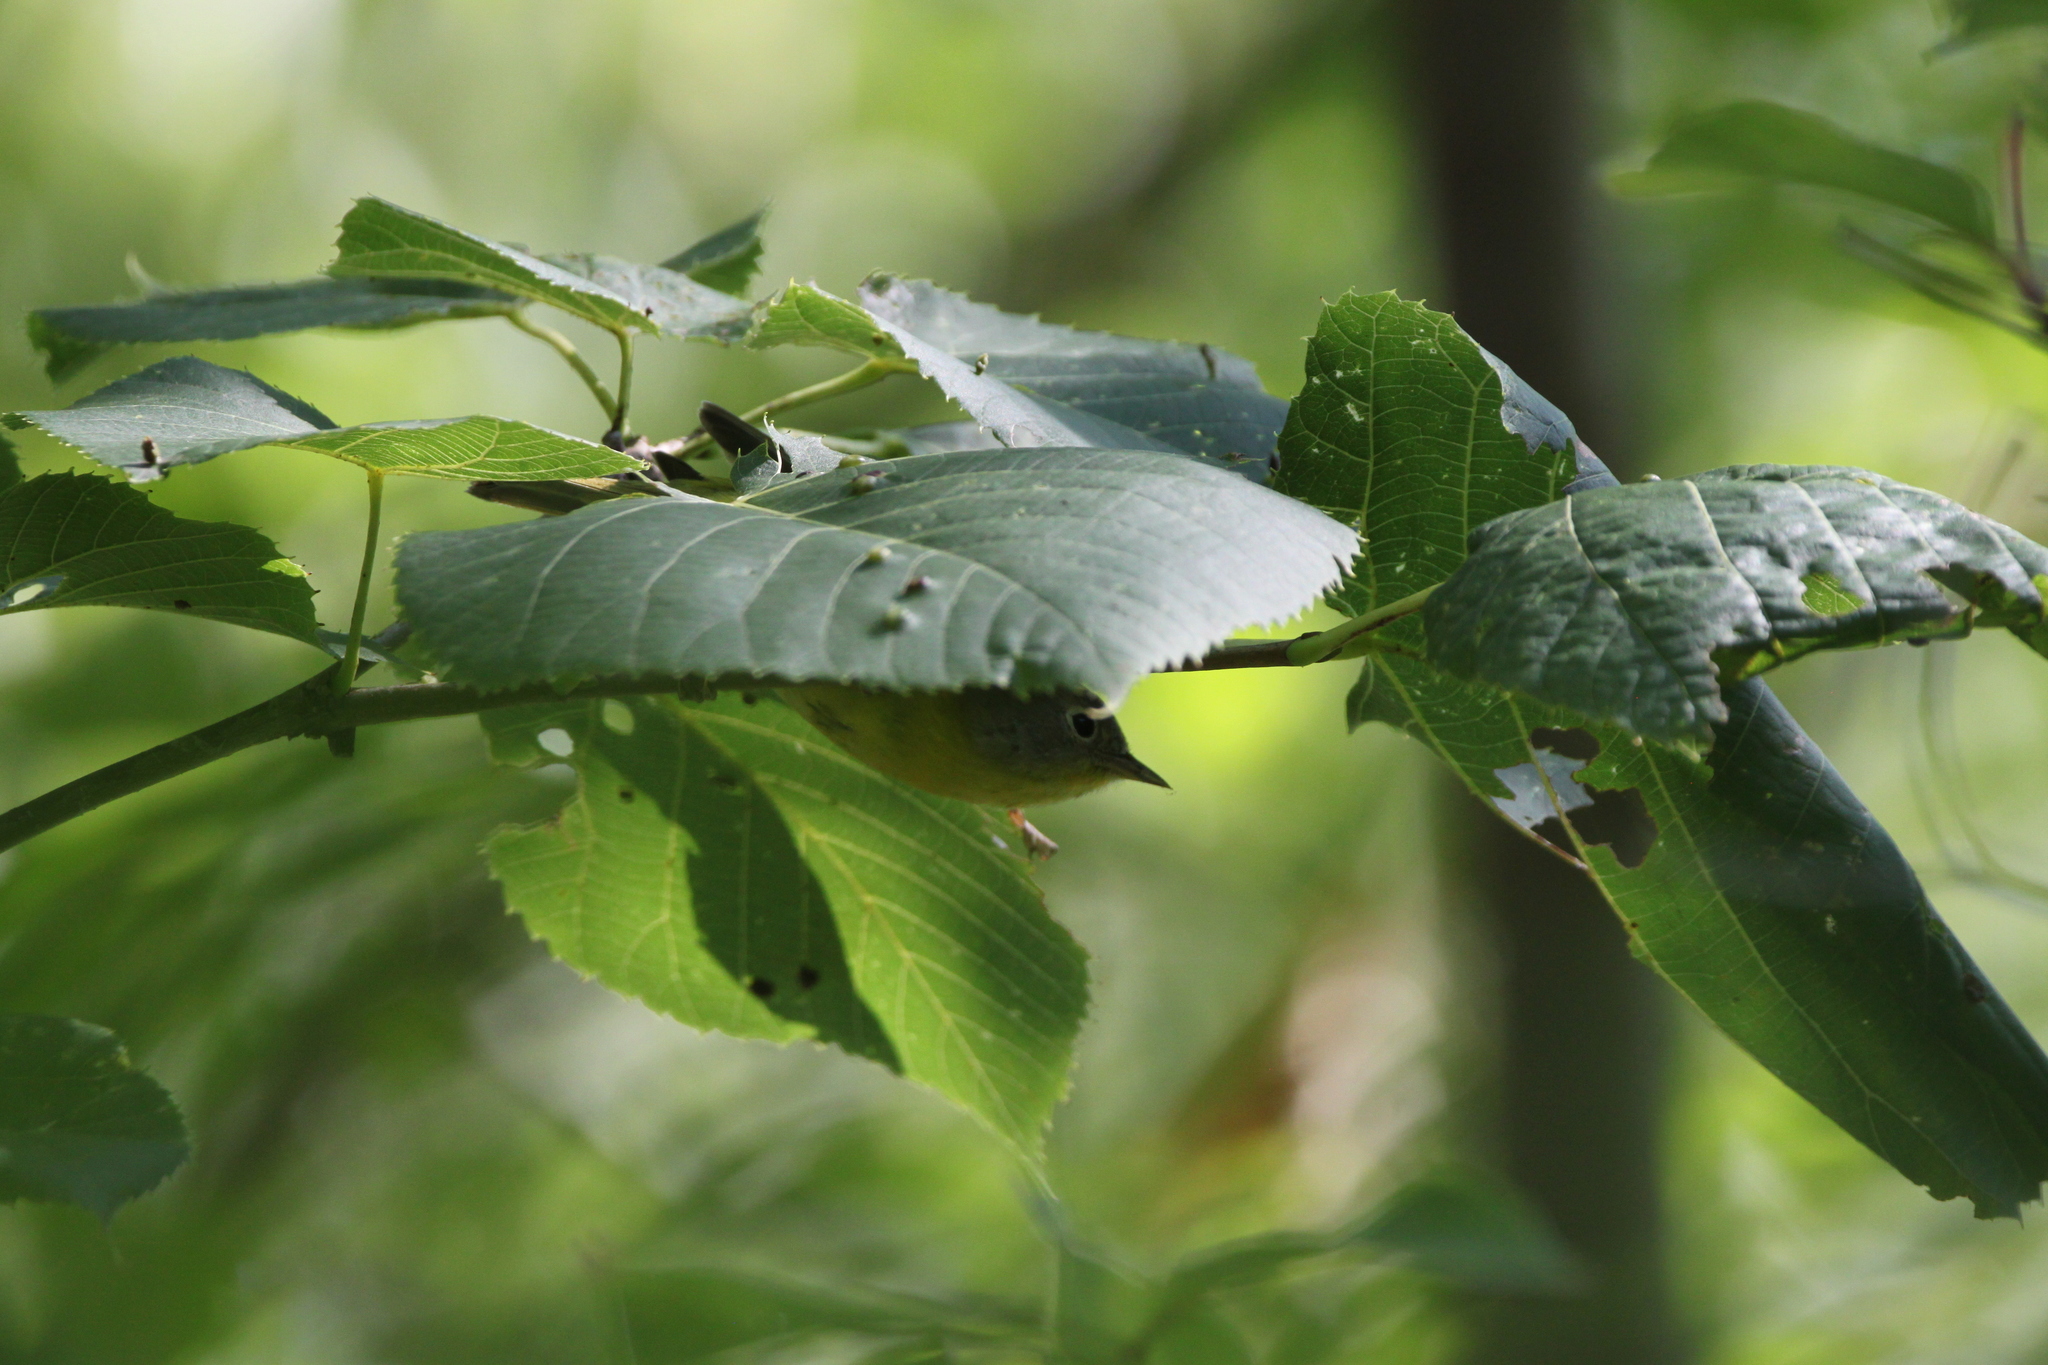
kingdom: Animalia
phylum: Chordata
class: Aves
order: Passeriformes
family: Parulidae
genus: Leiothlypis
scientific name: Leiothlypis ruficapilla
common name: Nashville warbler
